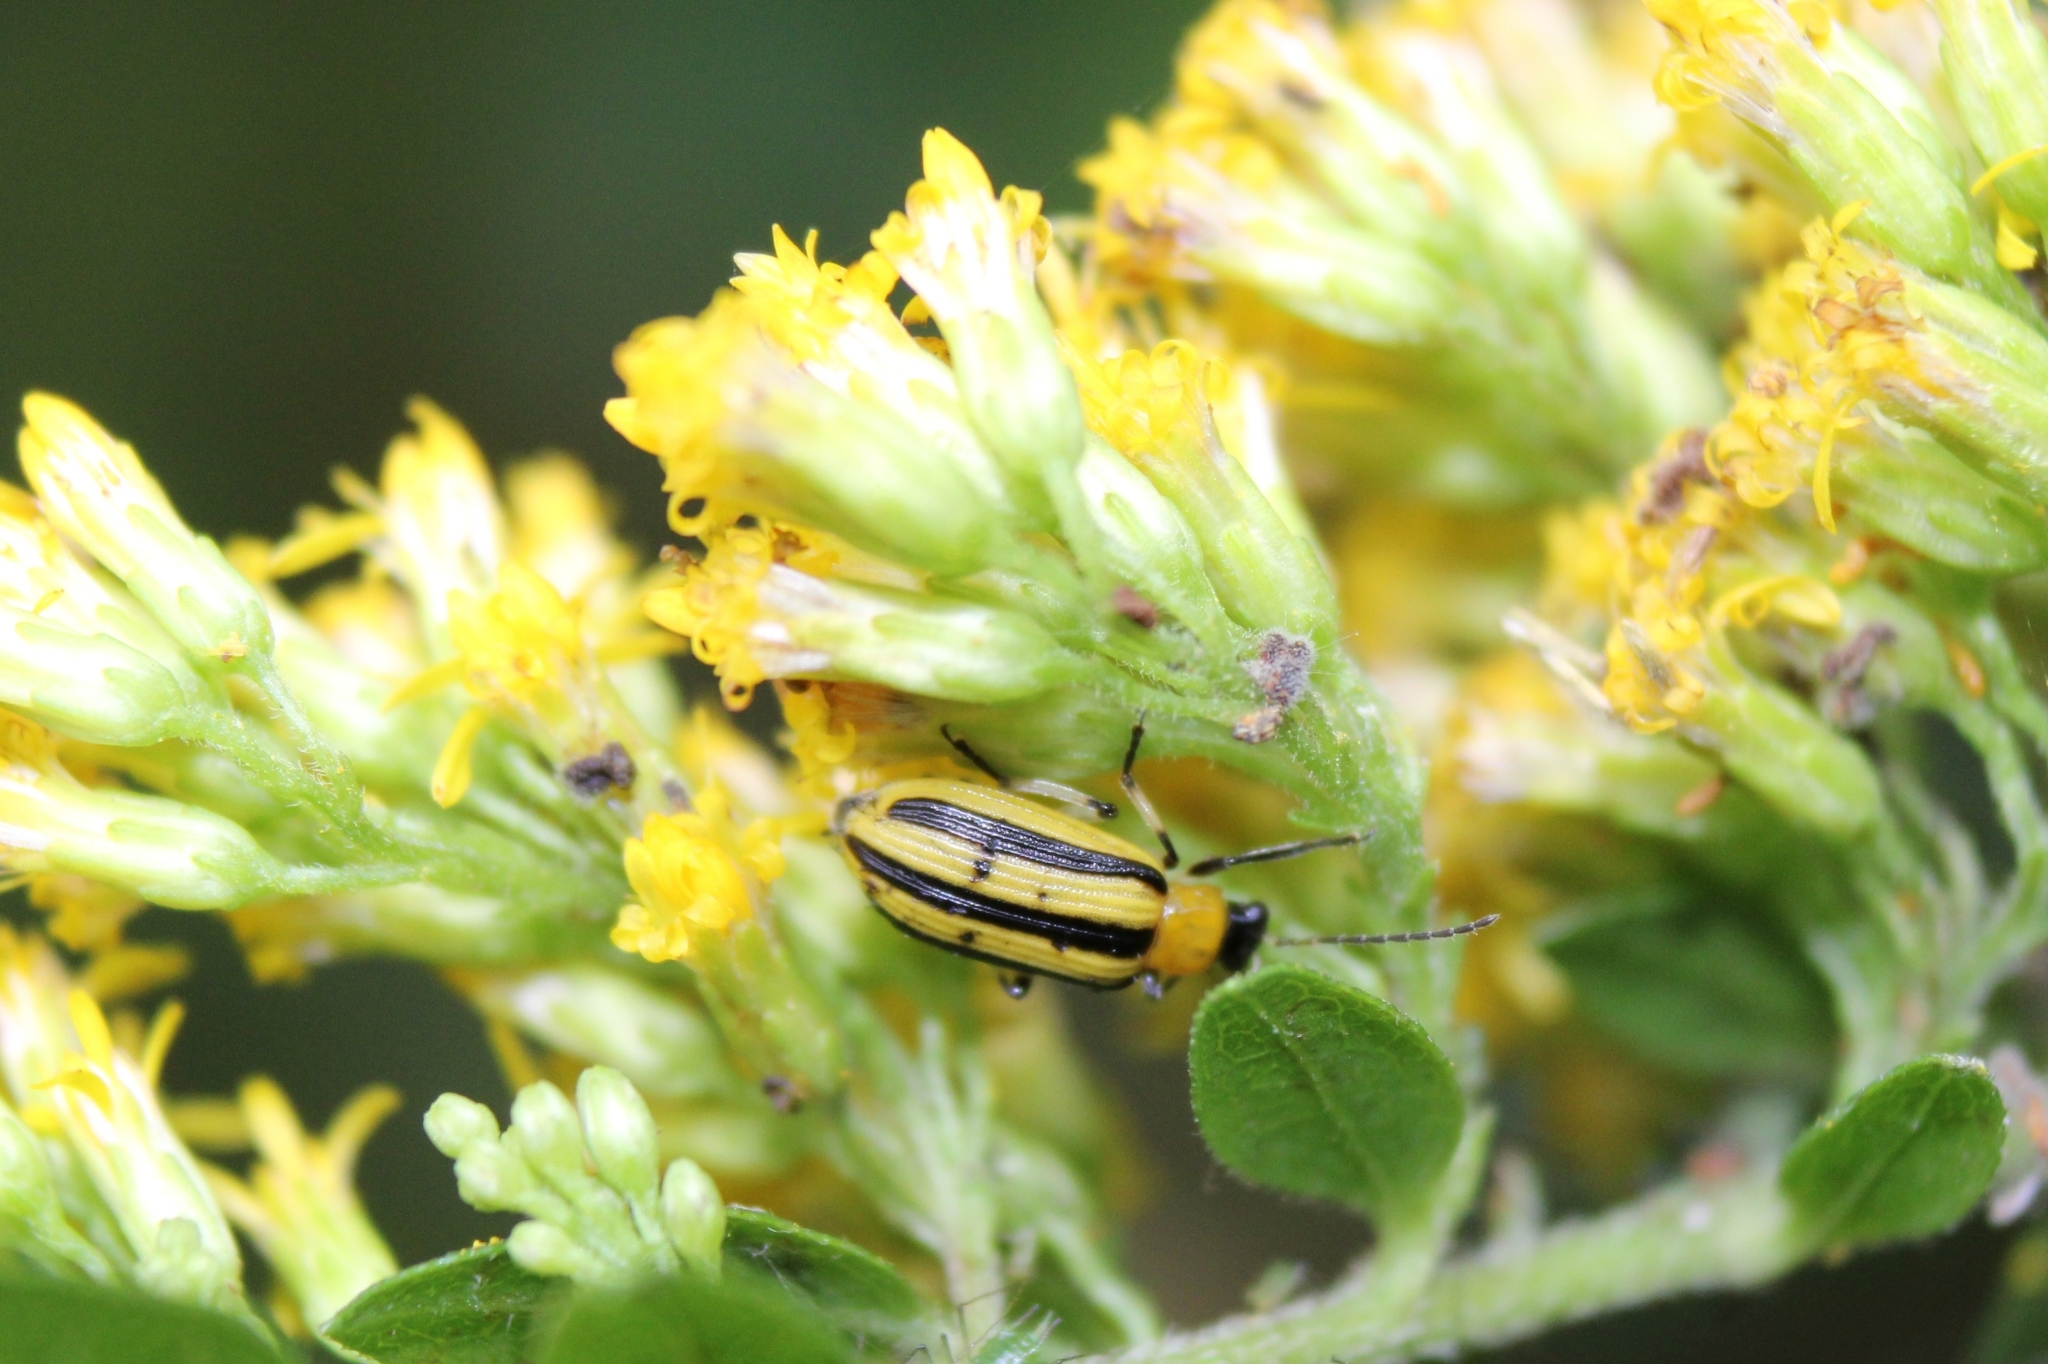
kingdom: Animalia
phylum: Arthropoda
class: Insecta
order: Coleoptera
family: Chrysomelidae
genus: Acalymma
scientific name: Acalymma vittatum
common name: Striped cucumber beetle
